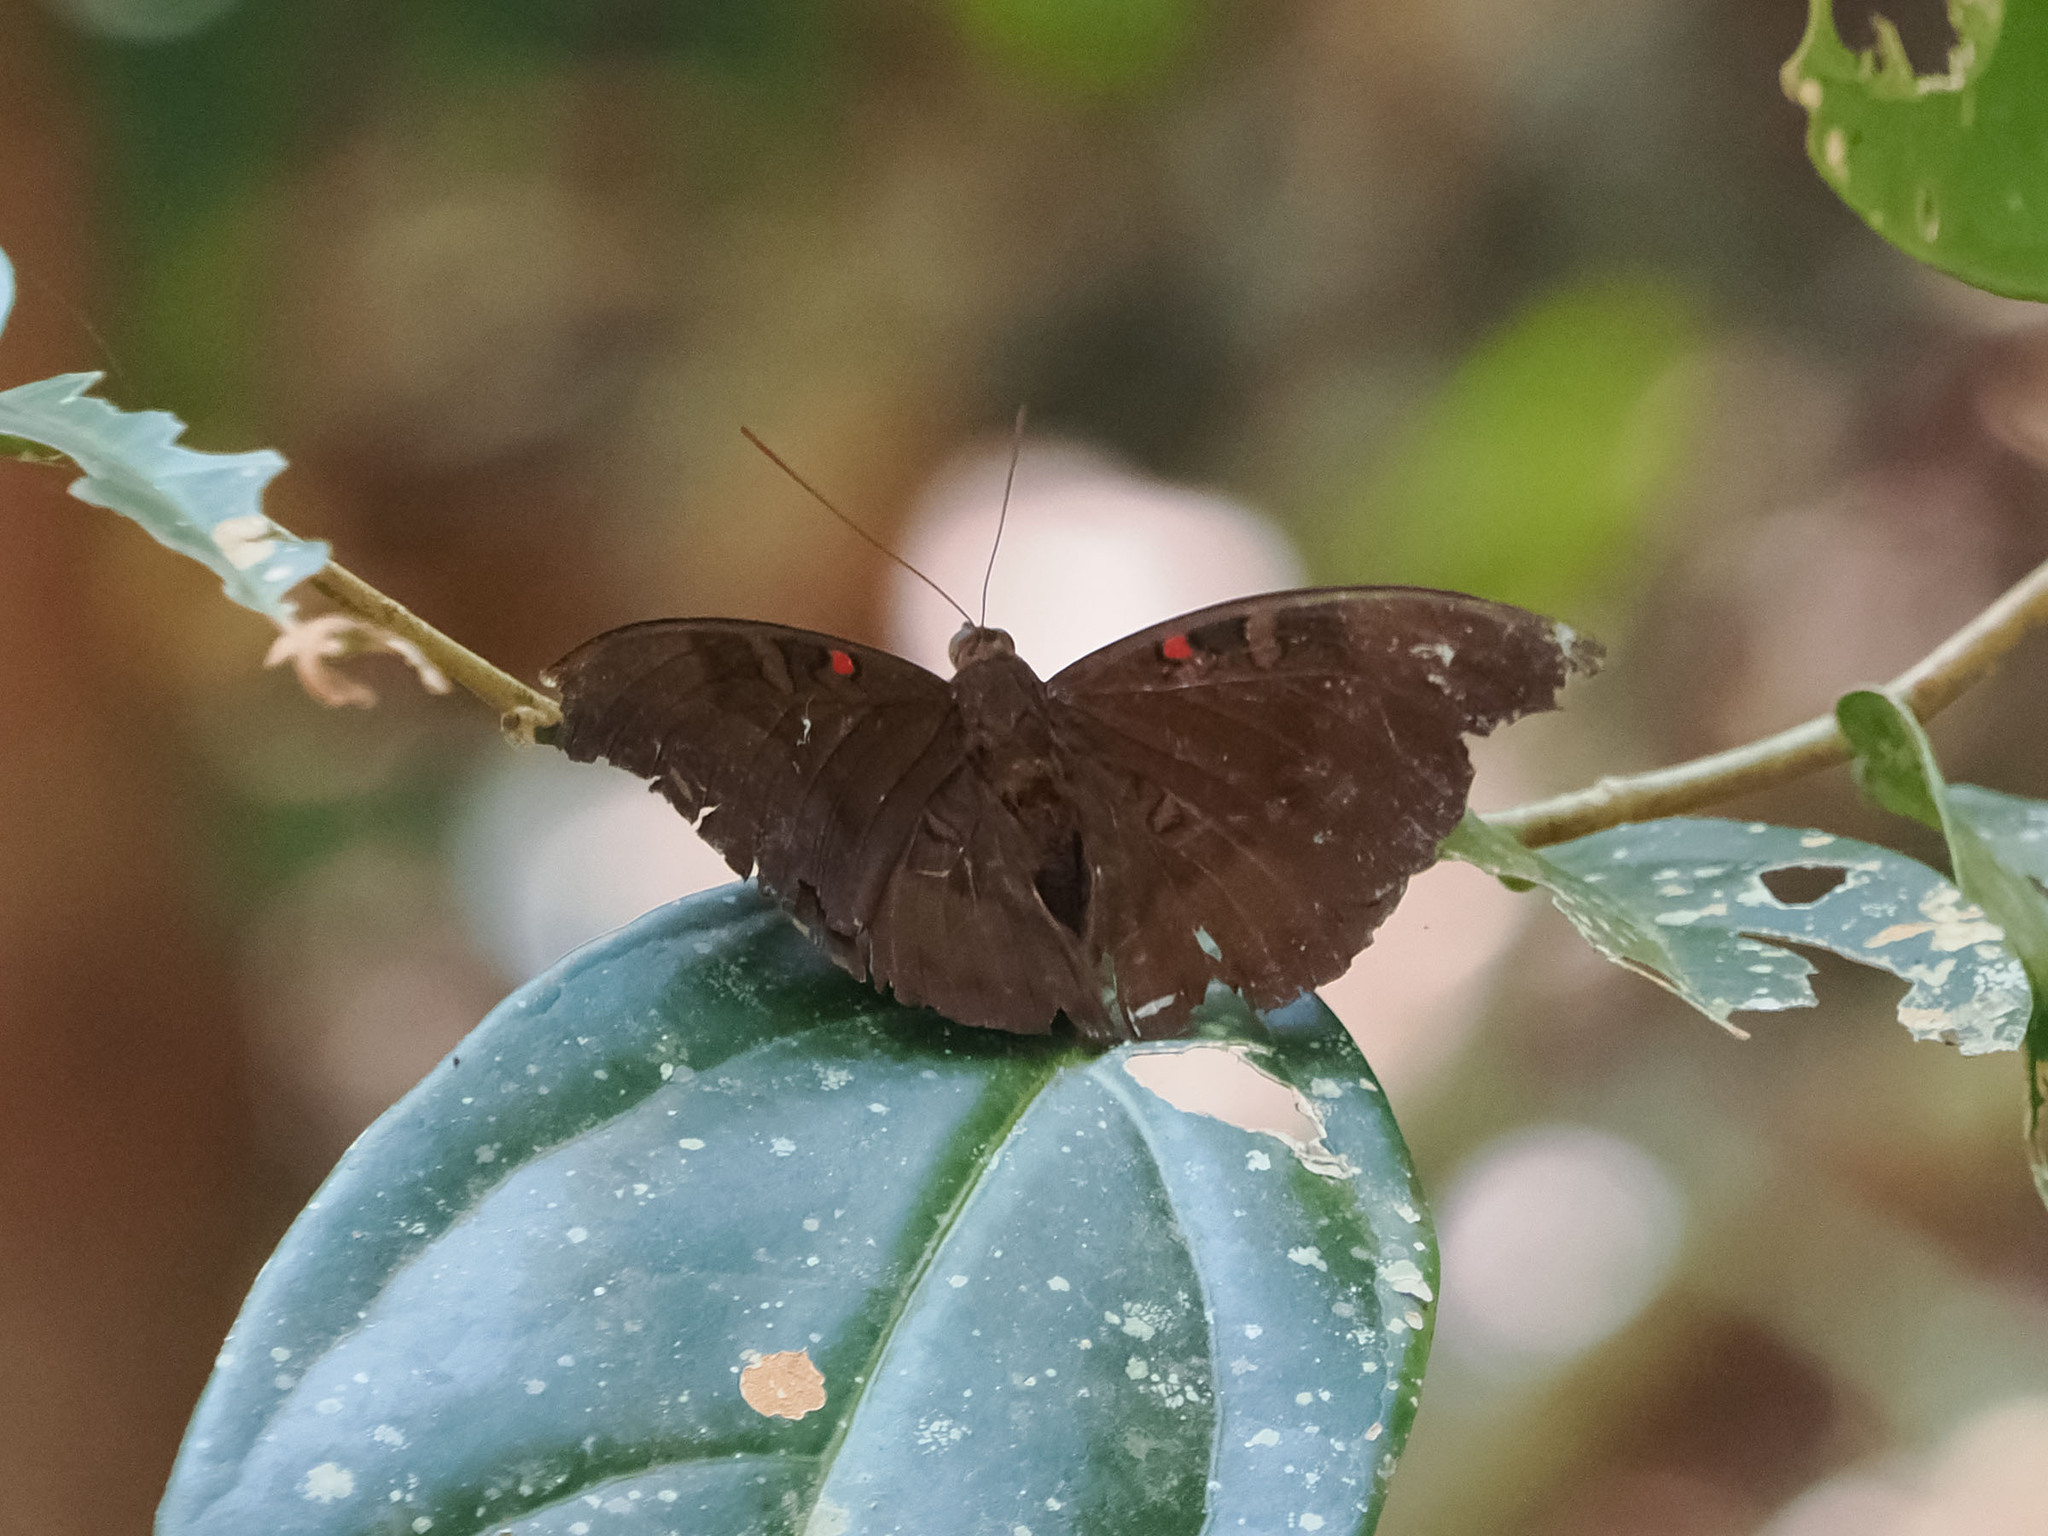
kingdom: Animalia
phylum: Arthropoda
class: Insecta
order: Lepidoptera
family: Nymphalidae
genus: Euthalia
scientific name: Euthalia Dophla evelina
